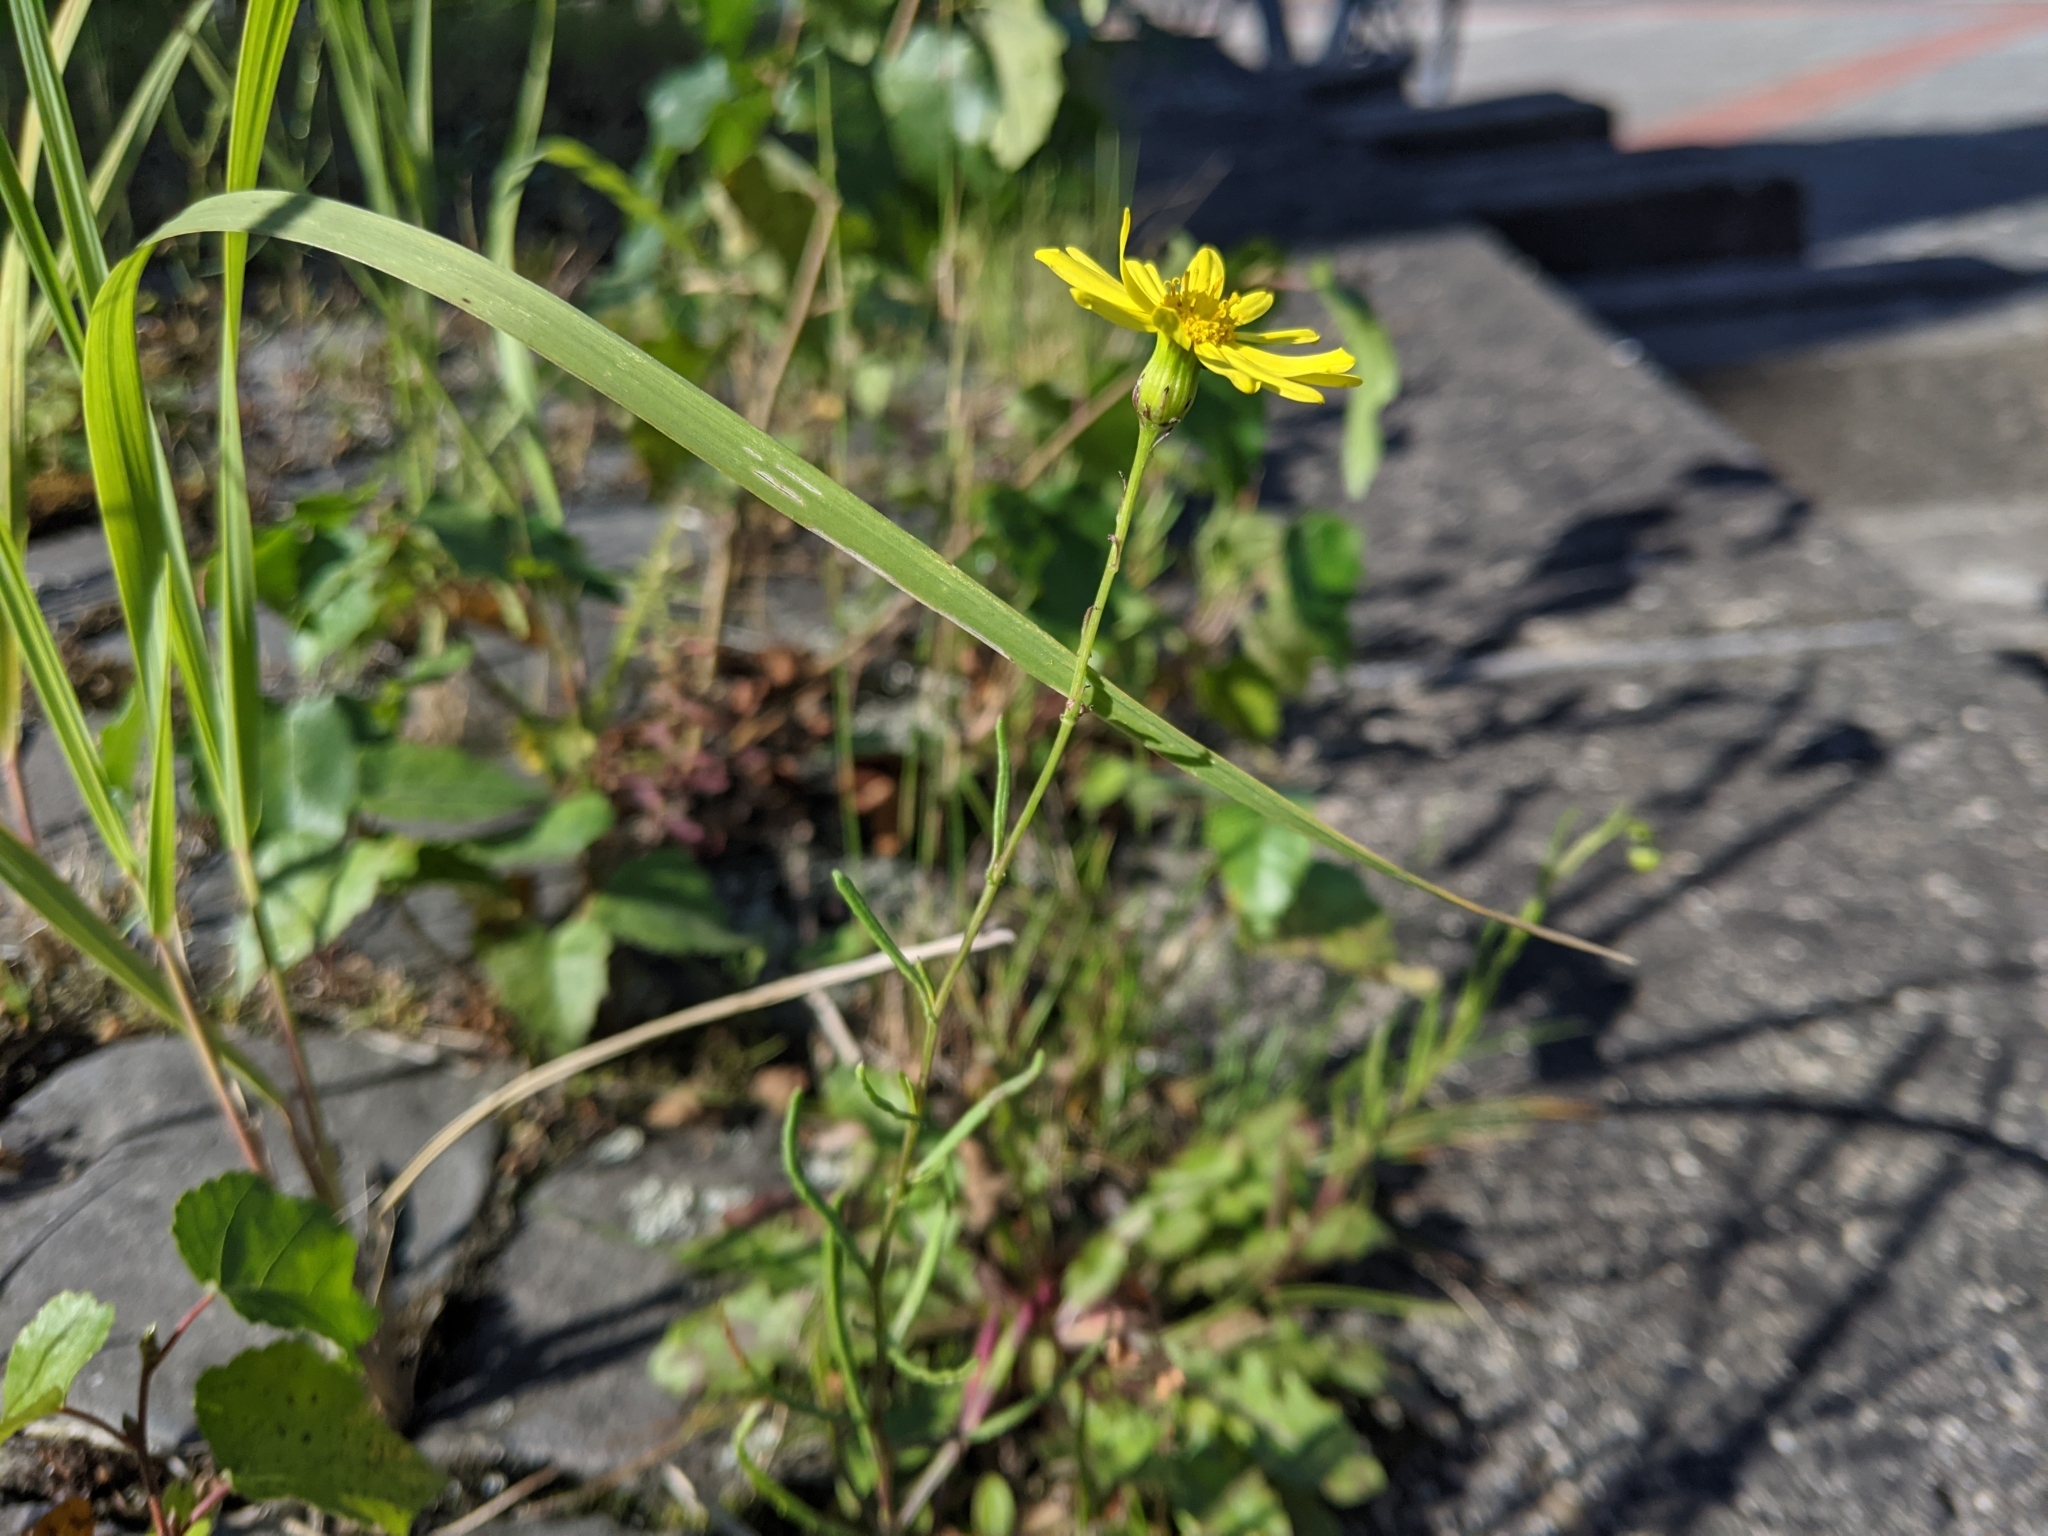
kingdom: Plantae
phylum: Tracheophyta
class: Magnoliopsida
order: Asterales
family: Asteraceae
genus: Senecio
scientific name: Senecio inaequidens
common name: Narrow-leaved ragwort
